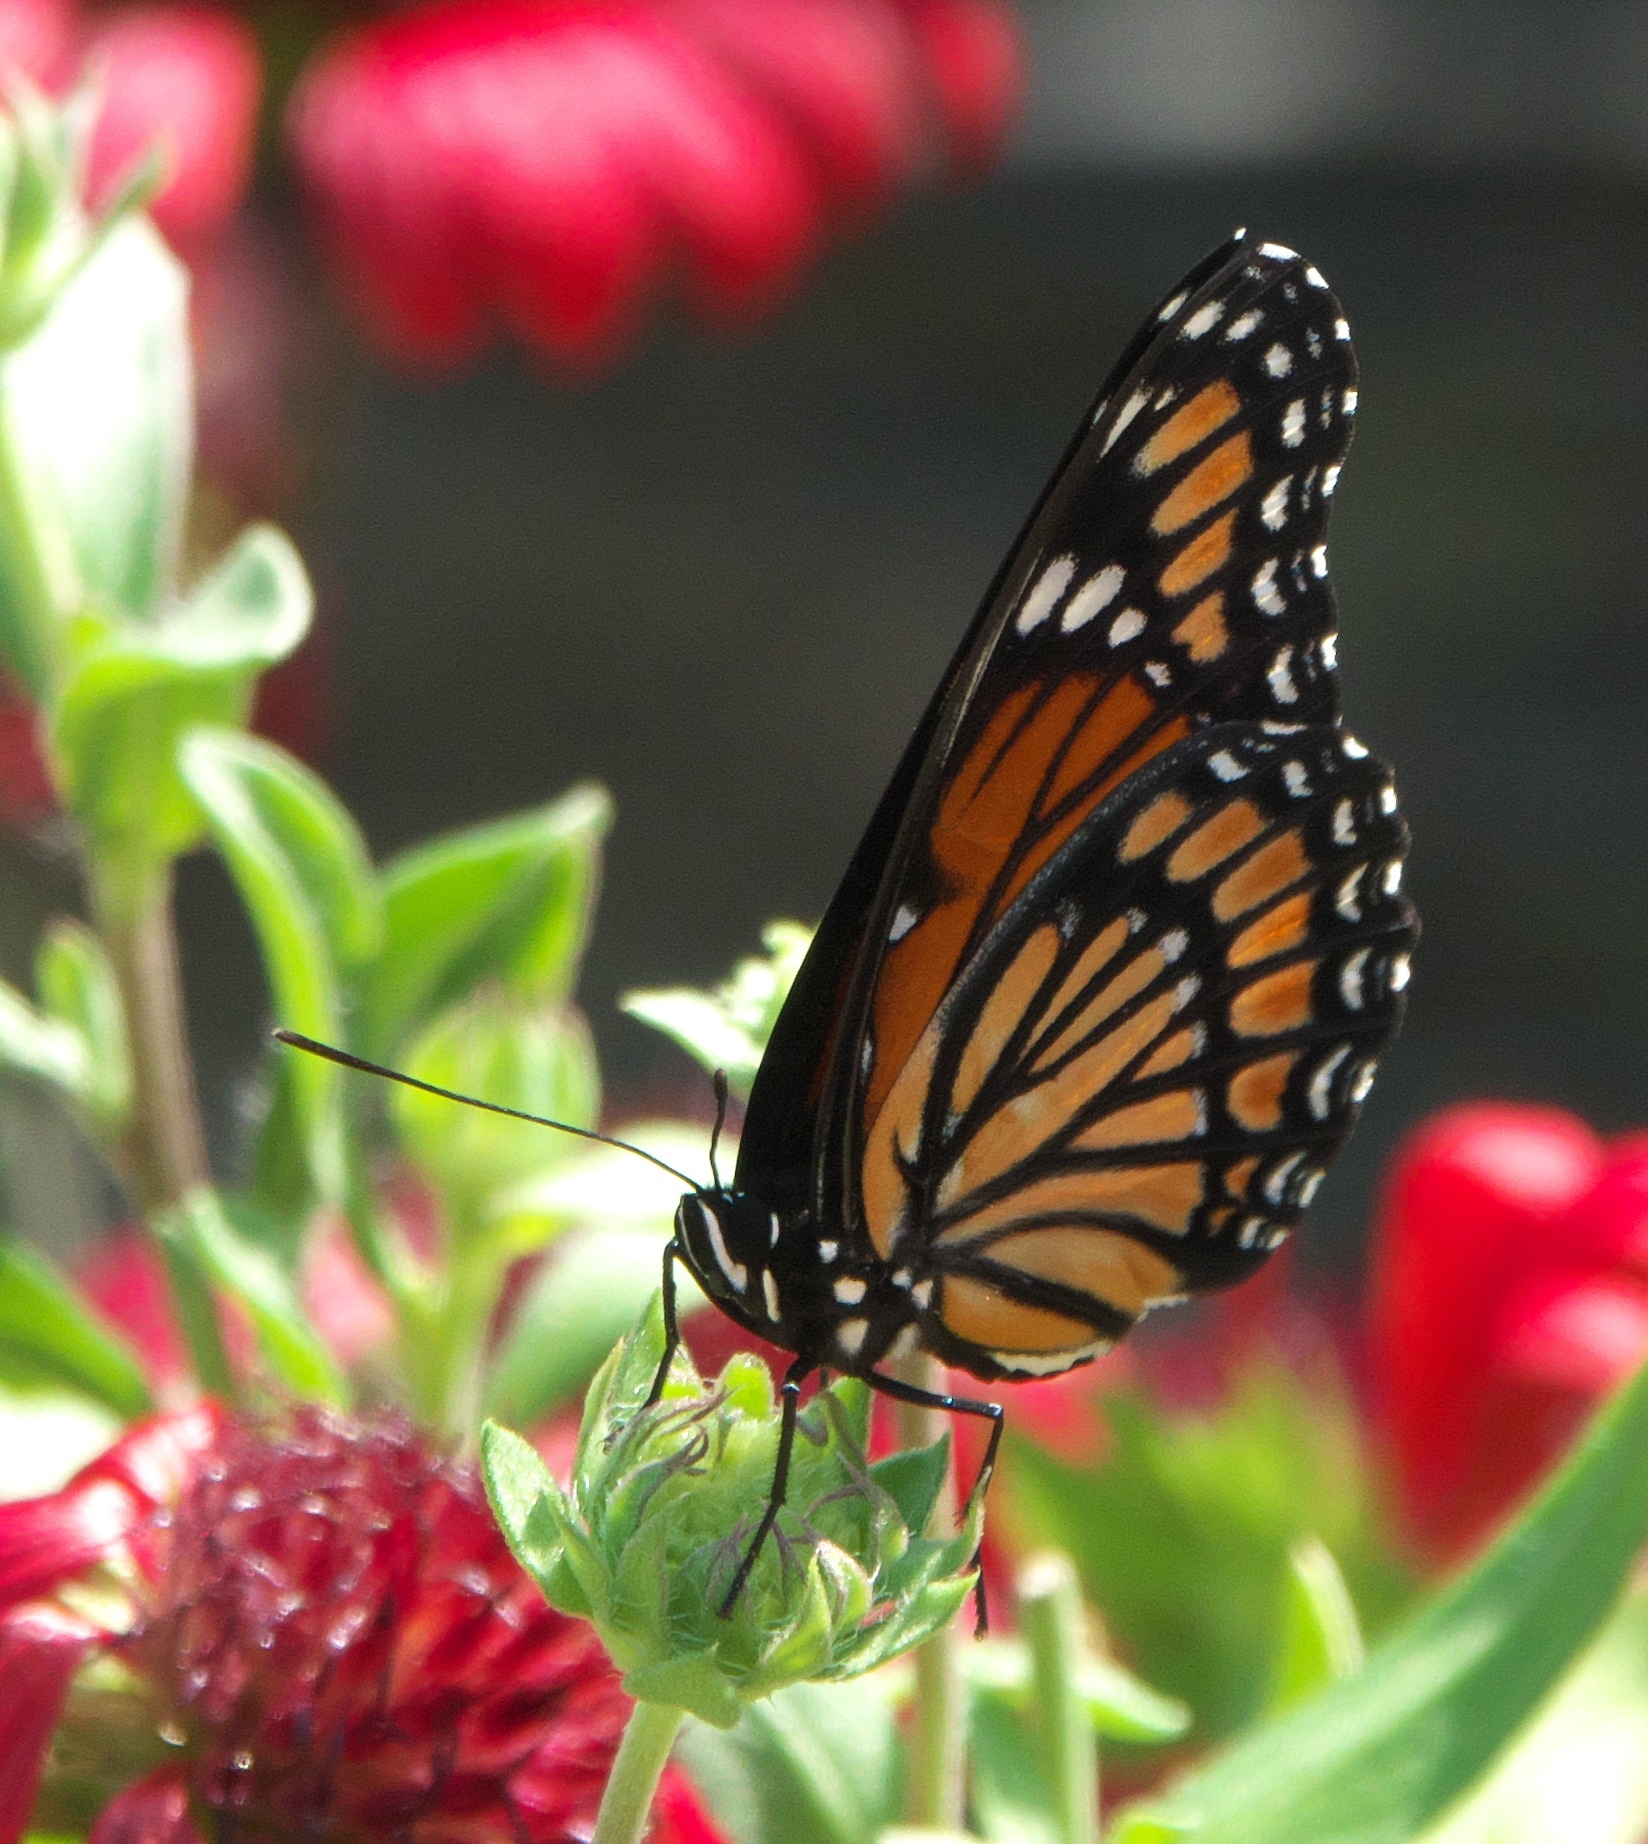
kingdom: Animalia
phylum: Arthropoda
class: Insecta
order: Lepidoptera
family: Nymphalidae
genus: Limenitis
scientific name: Limenitis archippus
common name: Viceroy
